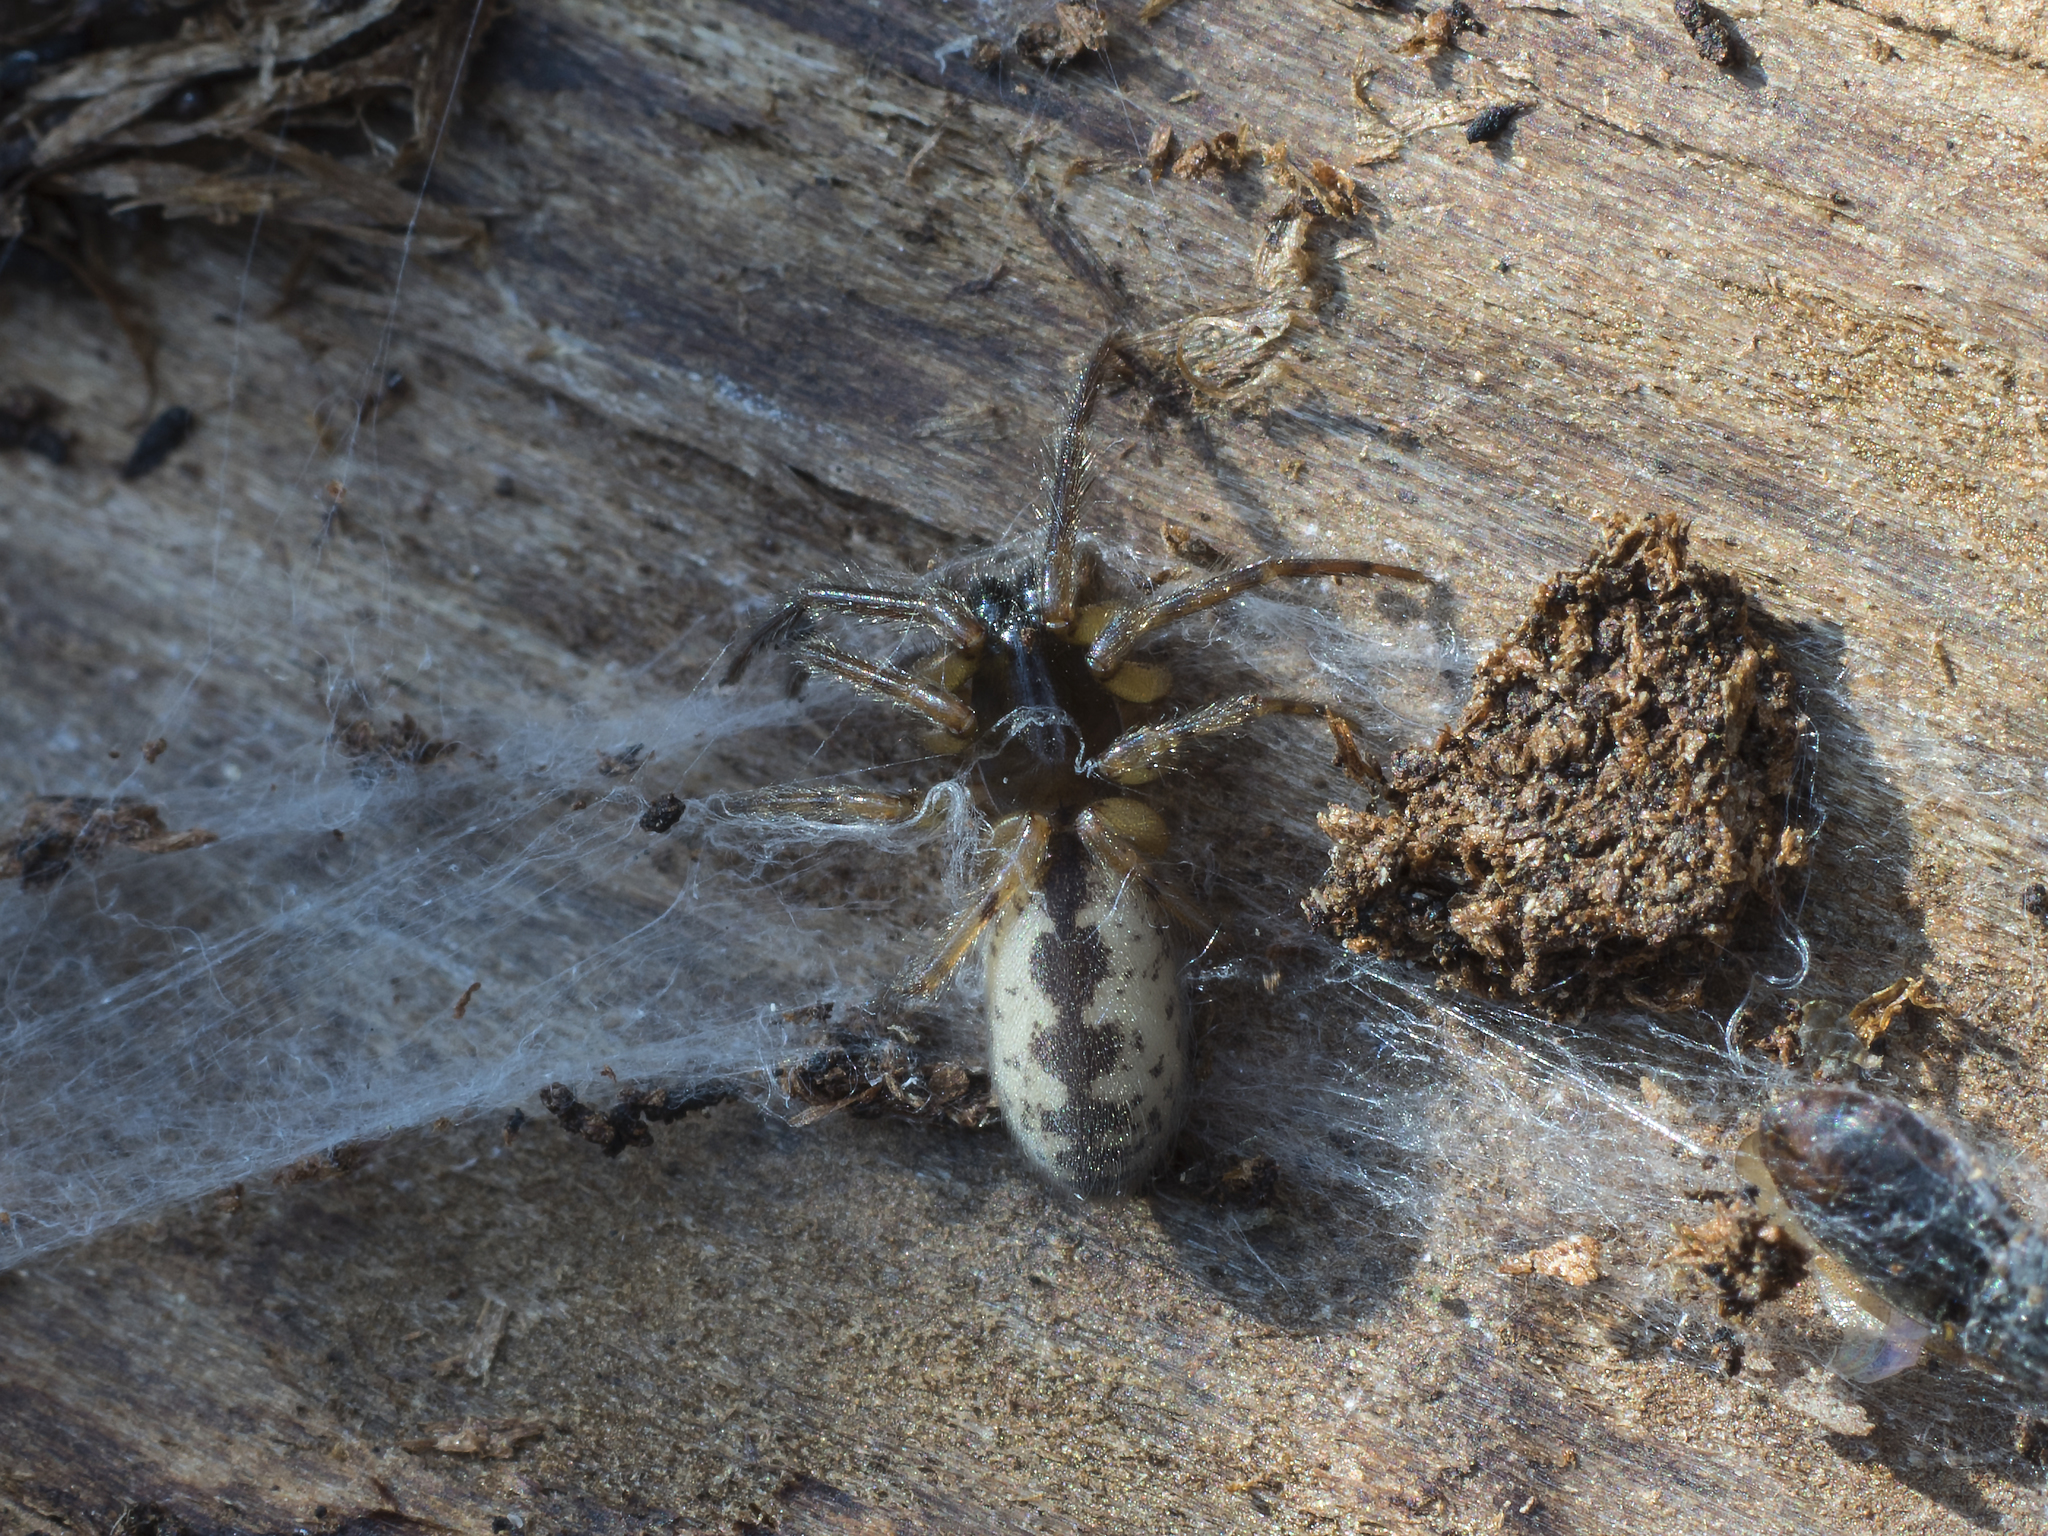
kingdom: Animalia
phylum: Arthropoda
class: Arachnida
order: Araneae
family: Segestriidae
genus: Segestria
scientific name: Segestria senoculata
